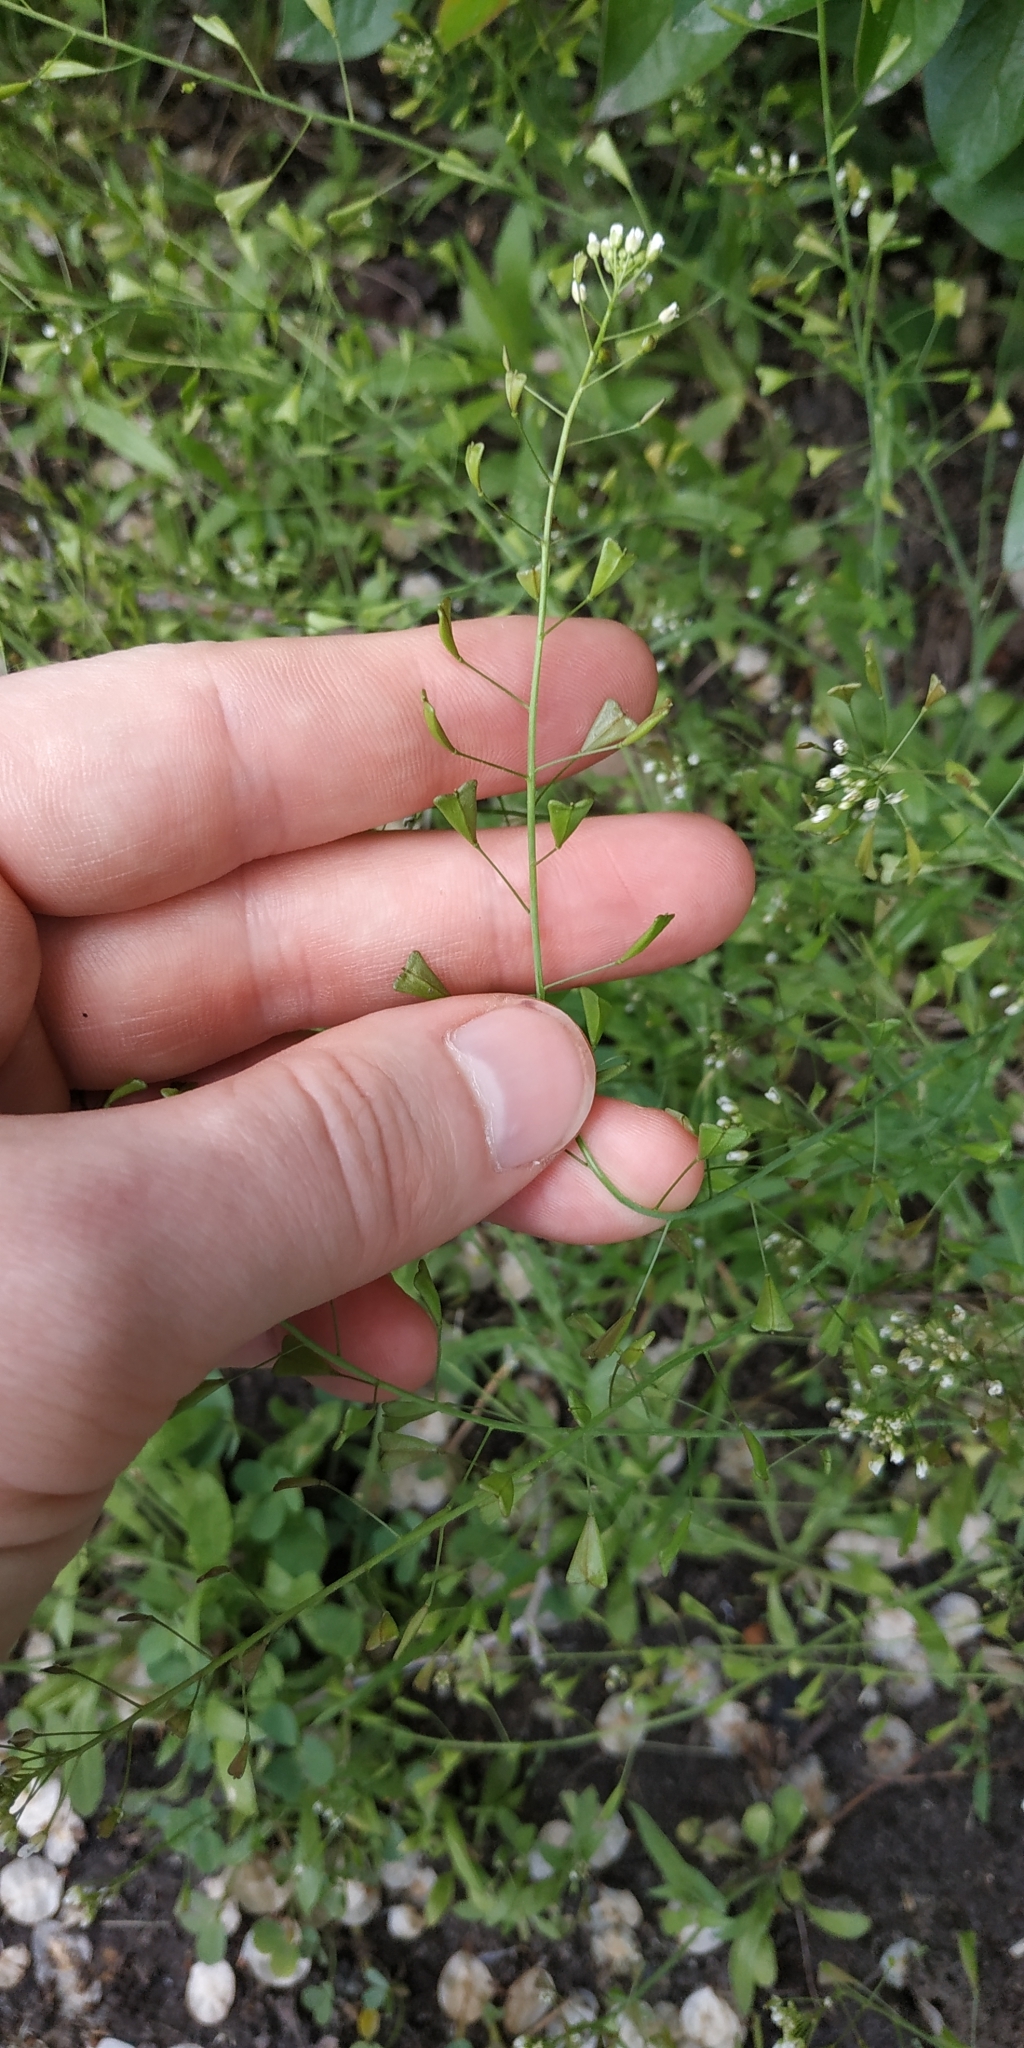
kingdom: Plantae
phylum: Tracheophyta
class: Magnoliopsida
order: Brassicales
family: Brassicaceae
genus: Capsella
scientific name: Capsella bursa-pastoris
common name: Shepherd's purse
